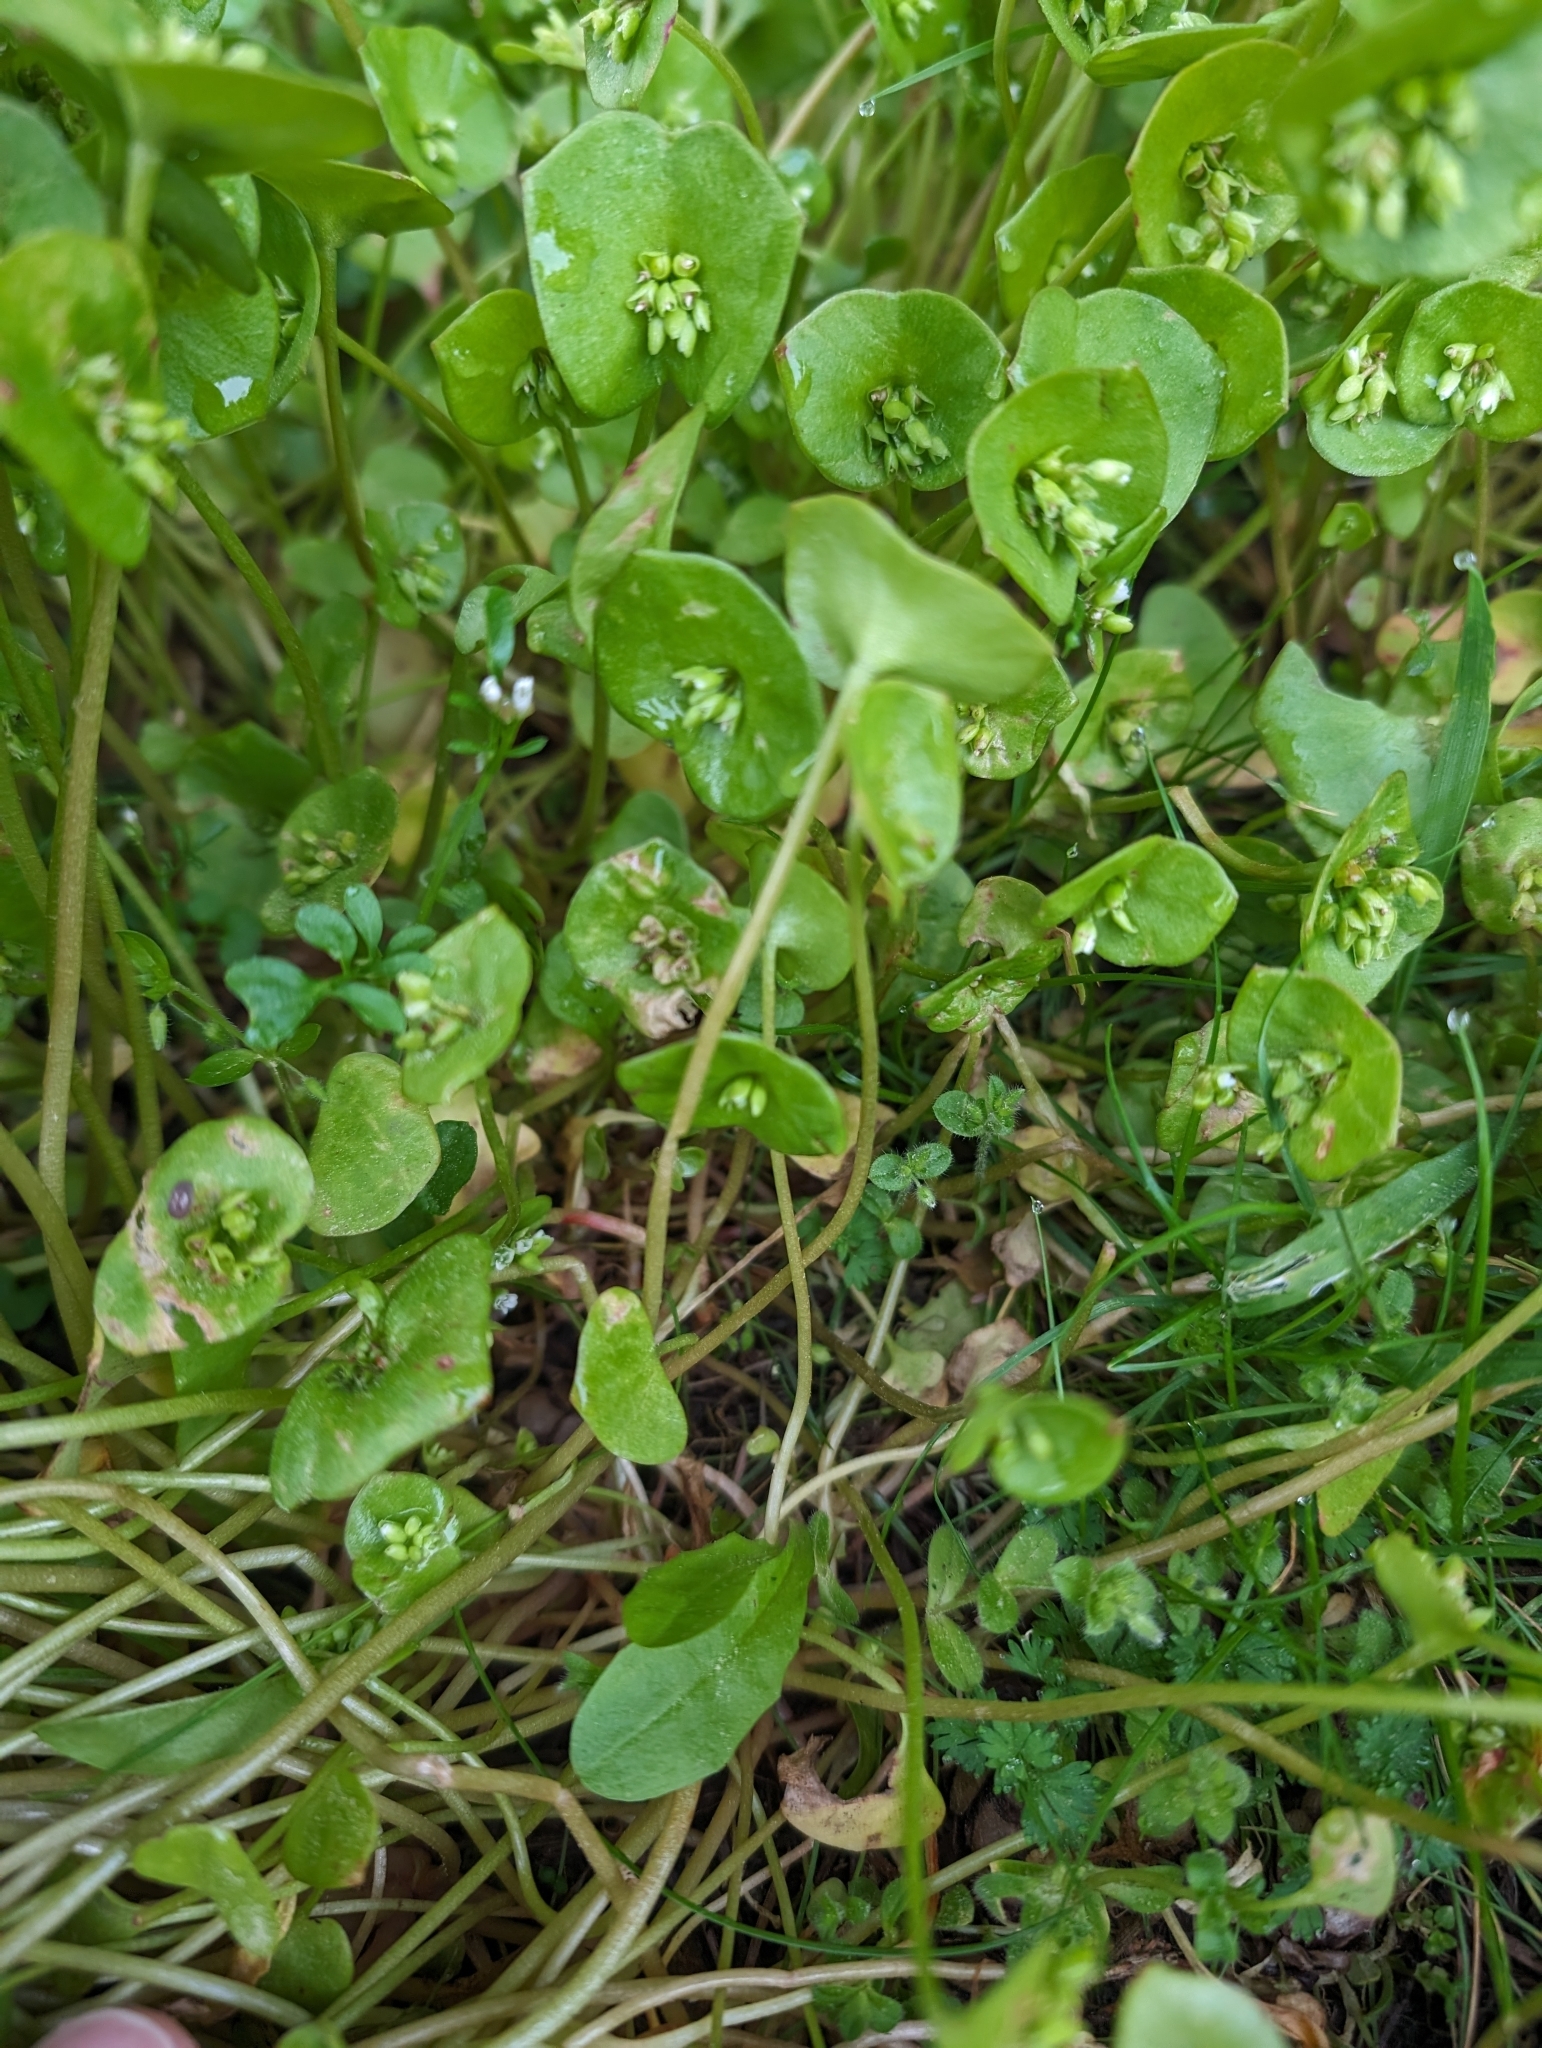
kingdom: Plantae
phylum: Tracheophyta
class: Magnoliopsida
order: Caryophyllales
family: Montiaceae
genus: Claytonia
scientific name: Claytonia perfoliata
